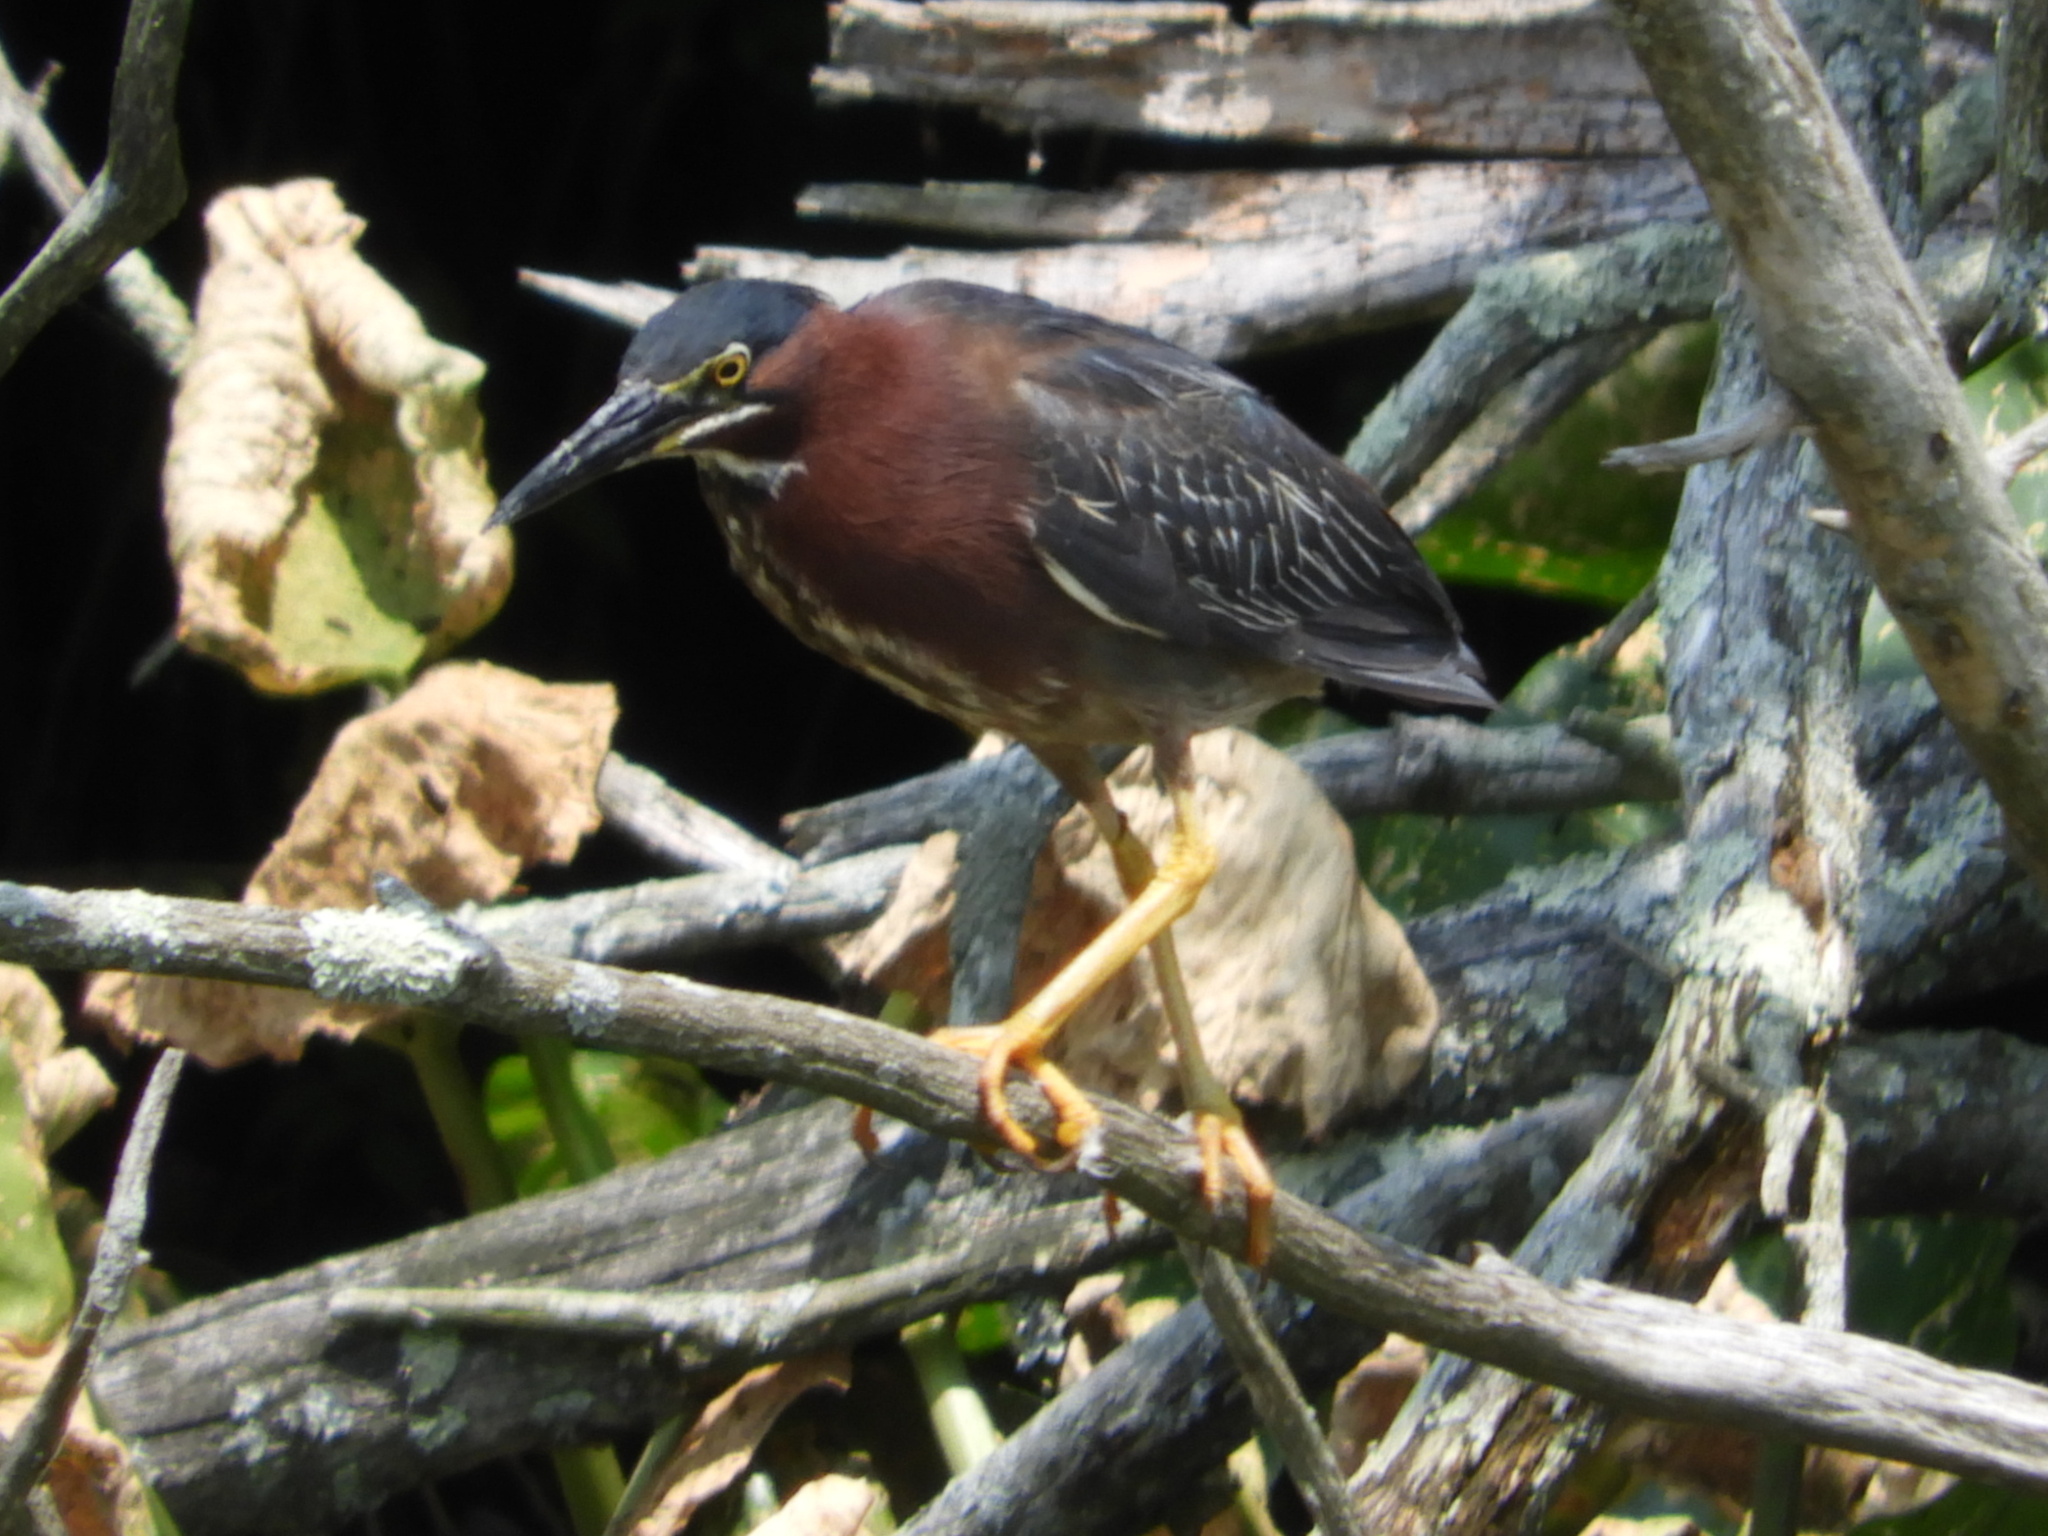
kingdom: Animalia
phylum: Chordata
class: Aves
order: Pelecaniformes
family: Ardeidae
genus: Butorides
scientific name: Butorides virescens
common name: Green heron
